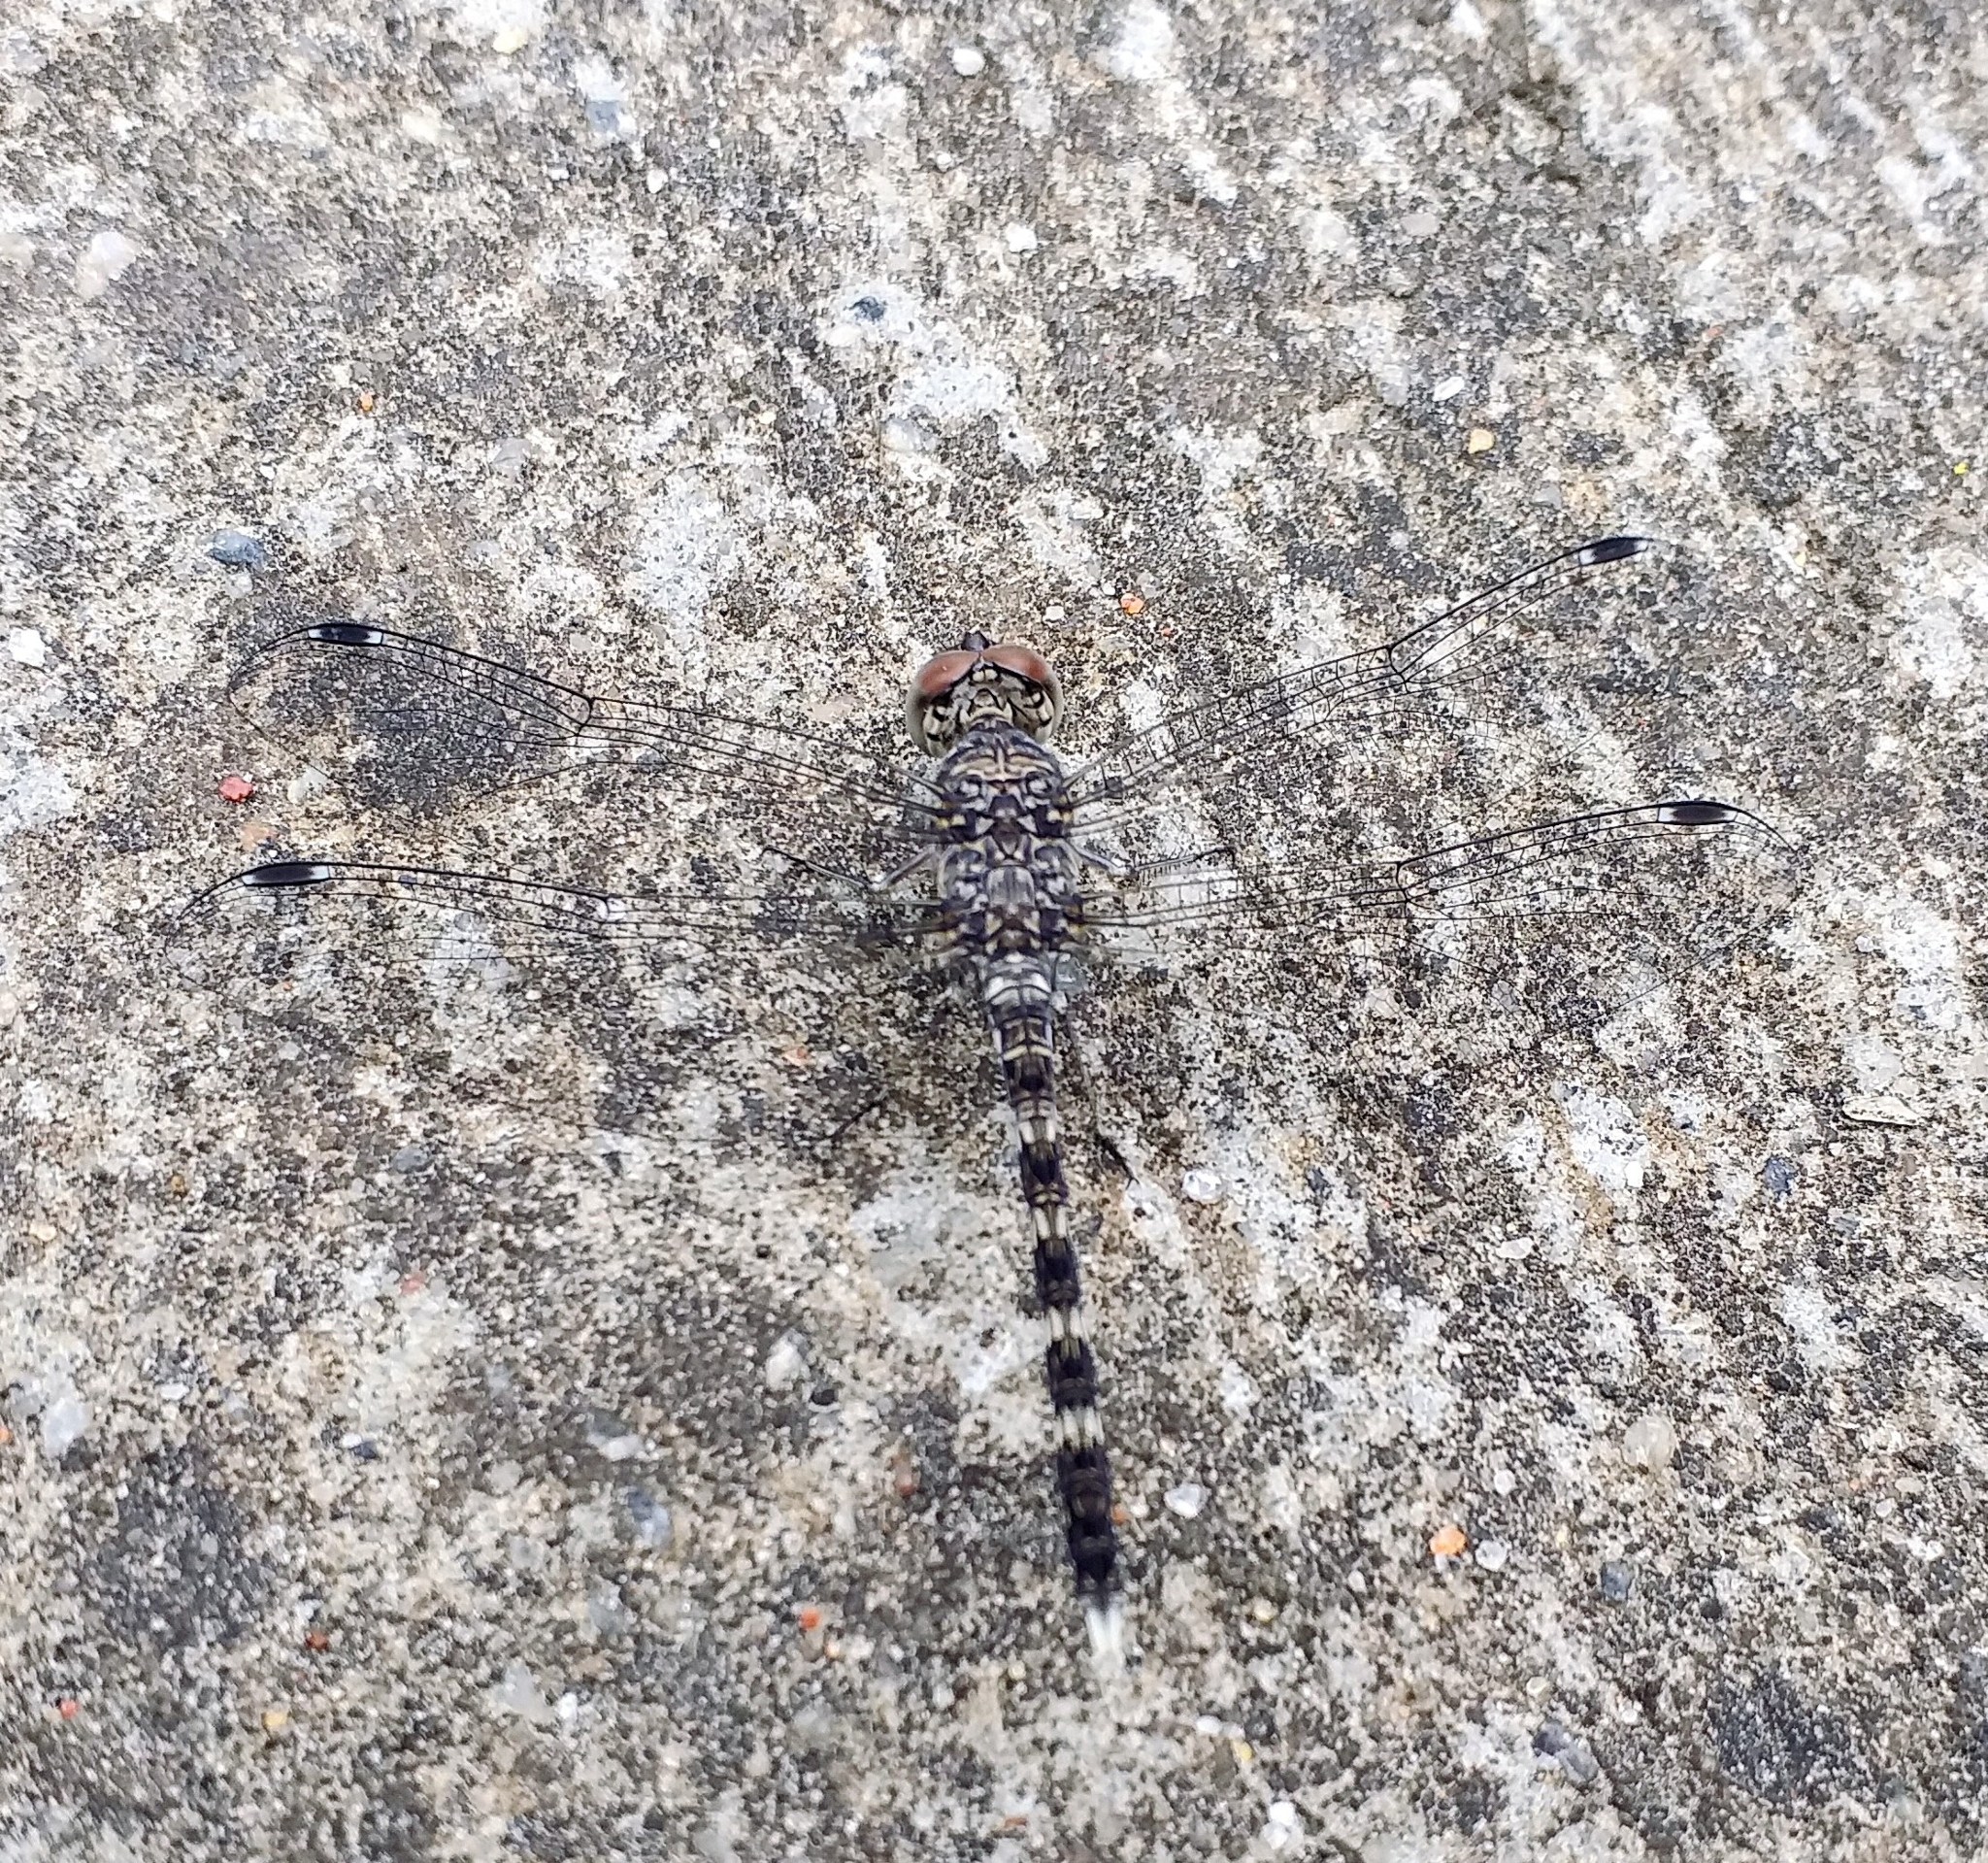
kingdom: Animalia
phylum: Arthropoda
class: Insecta
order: Odonata
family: Libellulidae
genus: Bradinopyga
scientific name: Bradinopyga geminata
